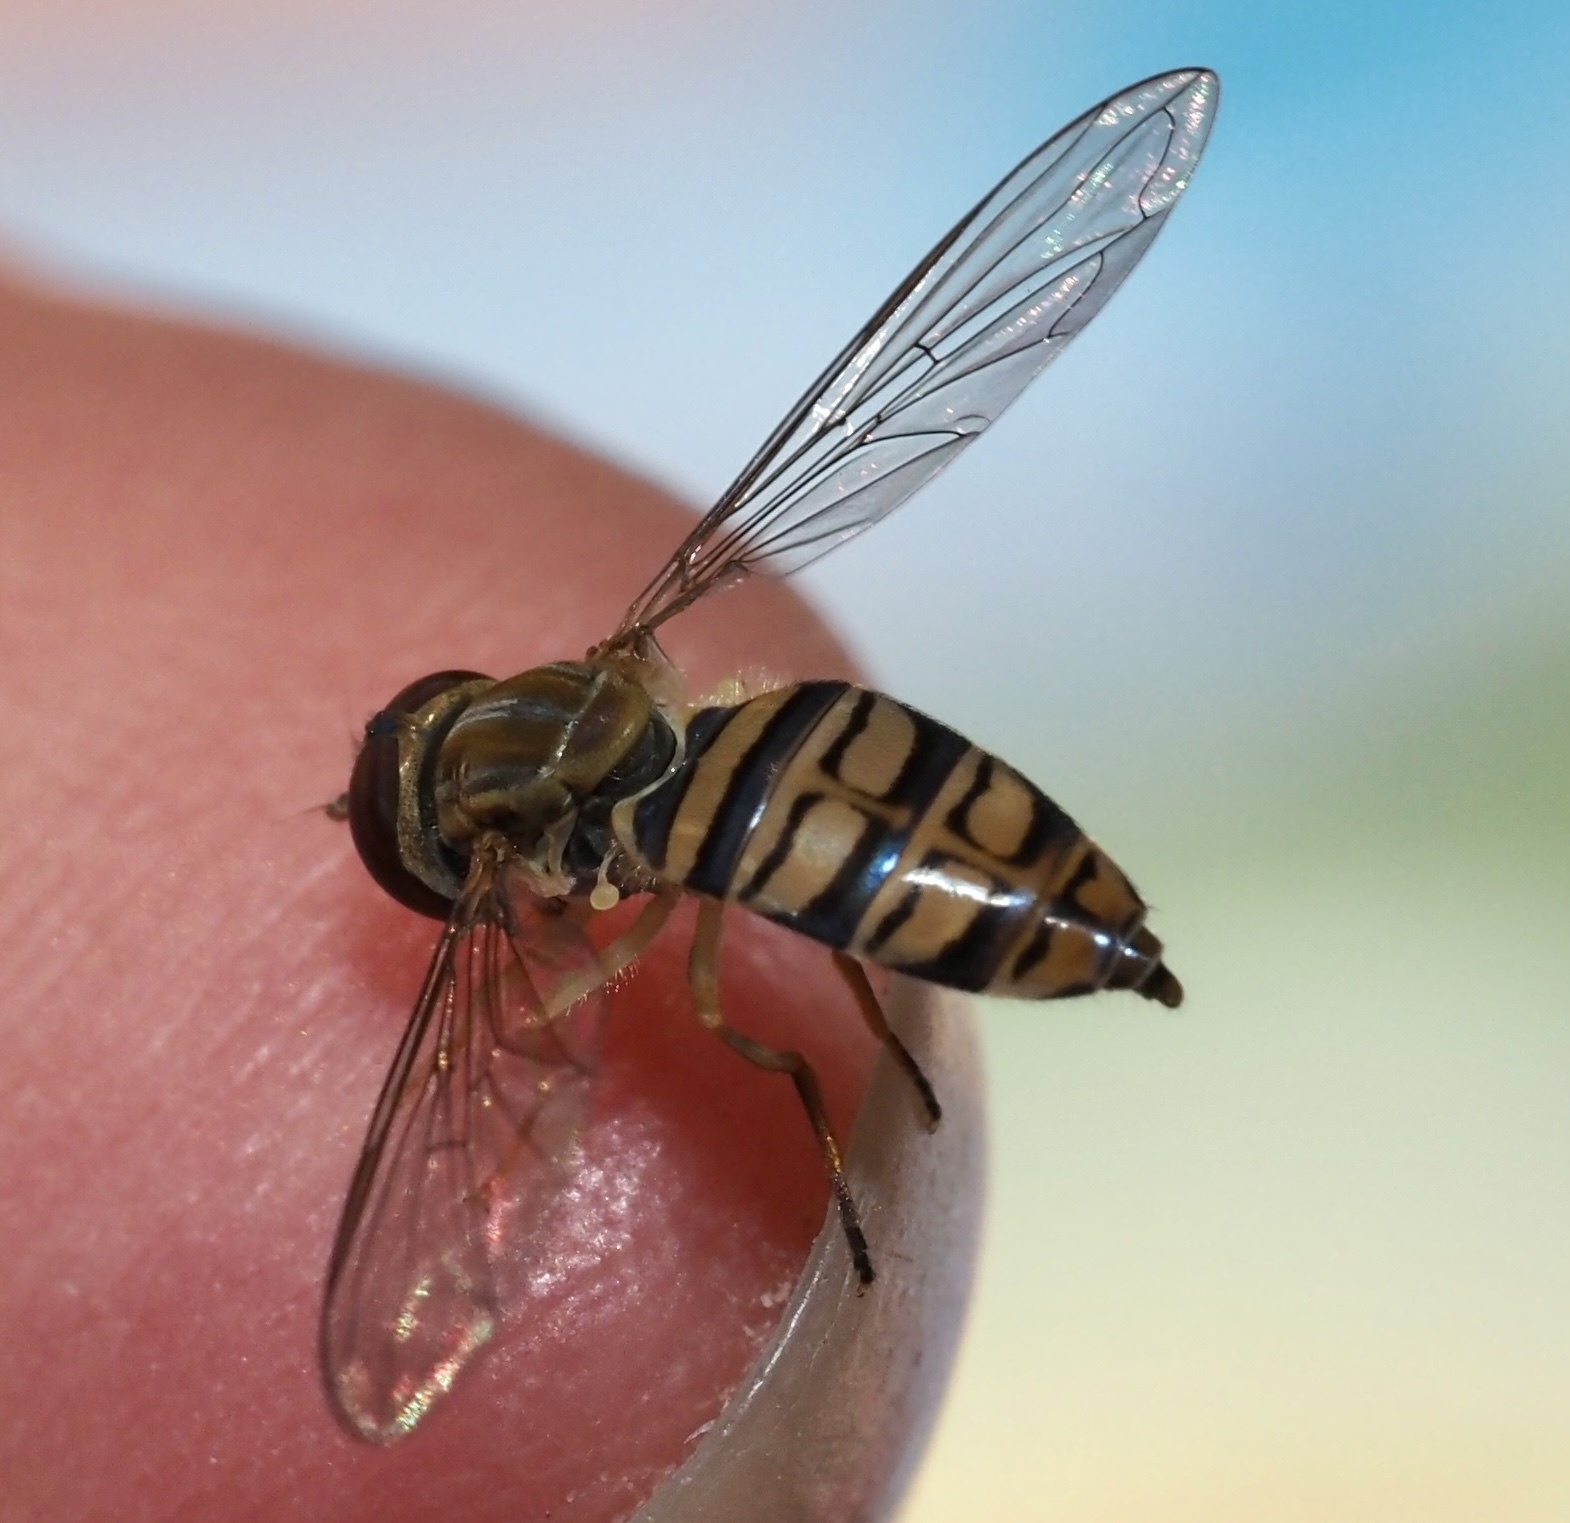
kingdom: Animalia
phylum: Arthropoda
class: Insecta
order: Diptera
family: Syrphidae
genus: Toxomerus
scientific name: Toxomerus politus
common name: Maize calligrapher
